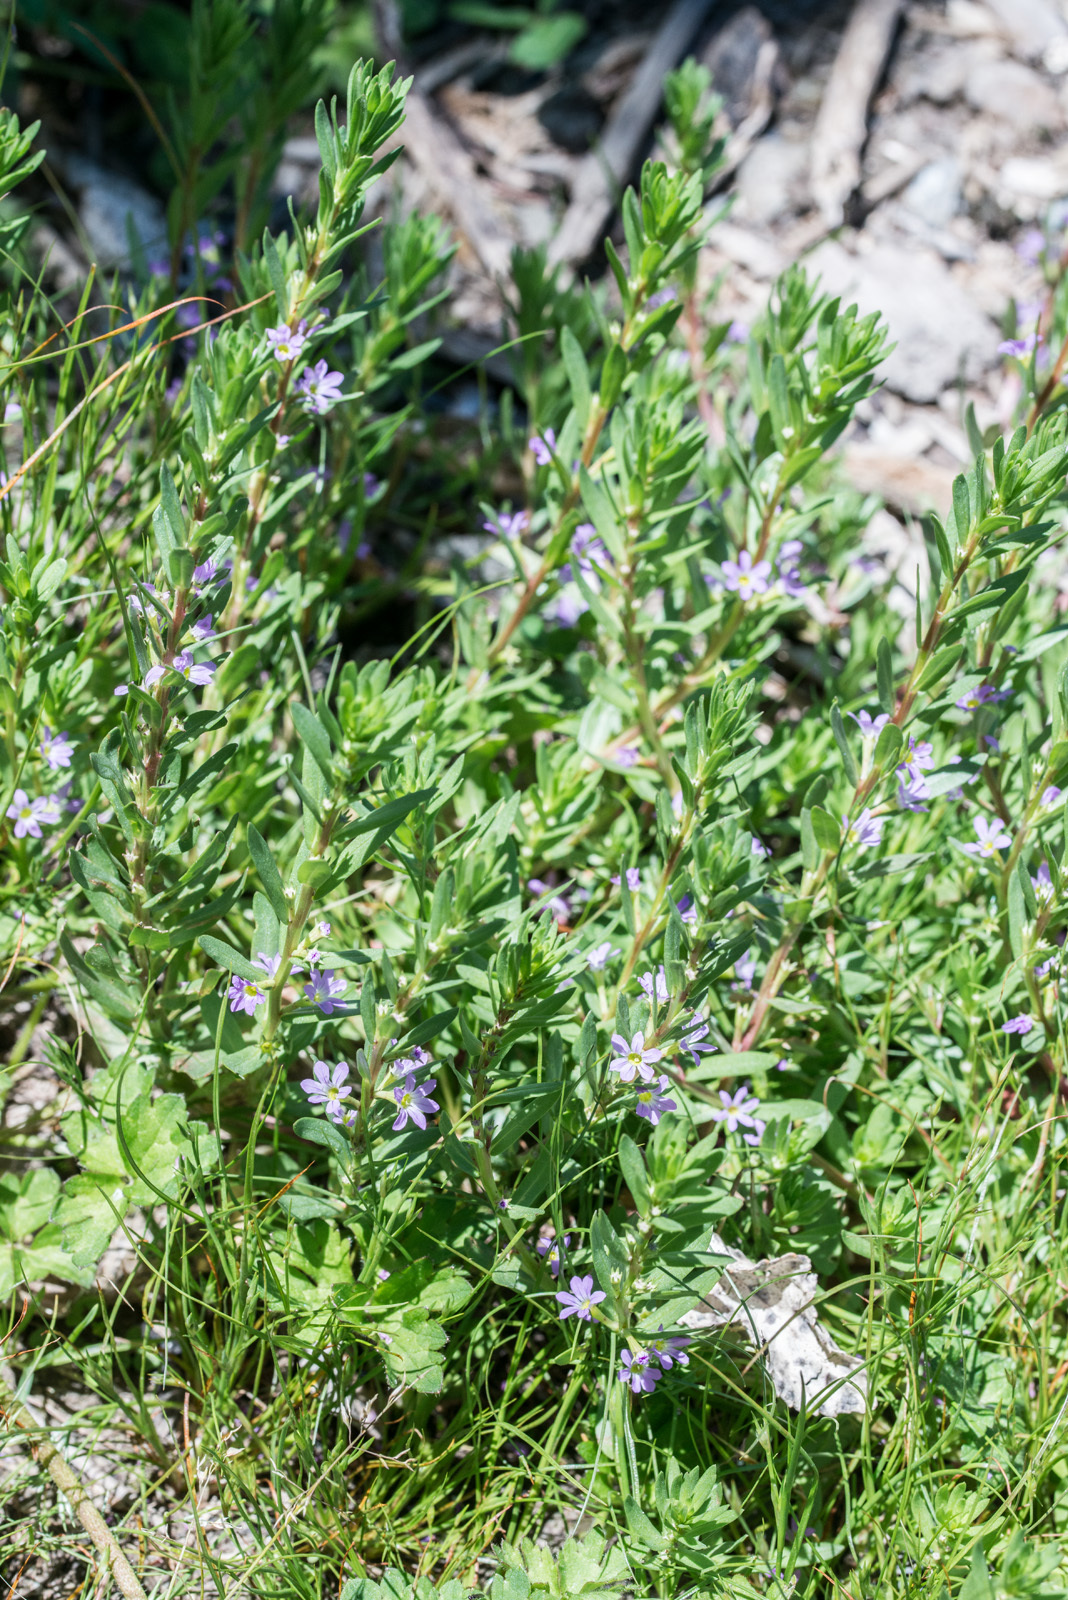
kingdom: Plantae
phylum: Tracheophyta
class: Magnoliopsida
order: Myrtales
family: Lythraceae
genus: Lythrum
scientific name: Lythrum hyssopifolia
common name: Grass-poly
